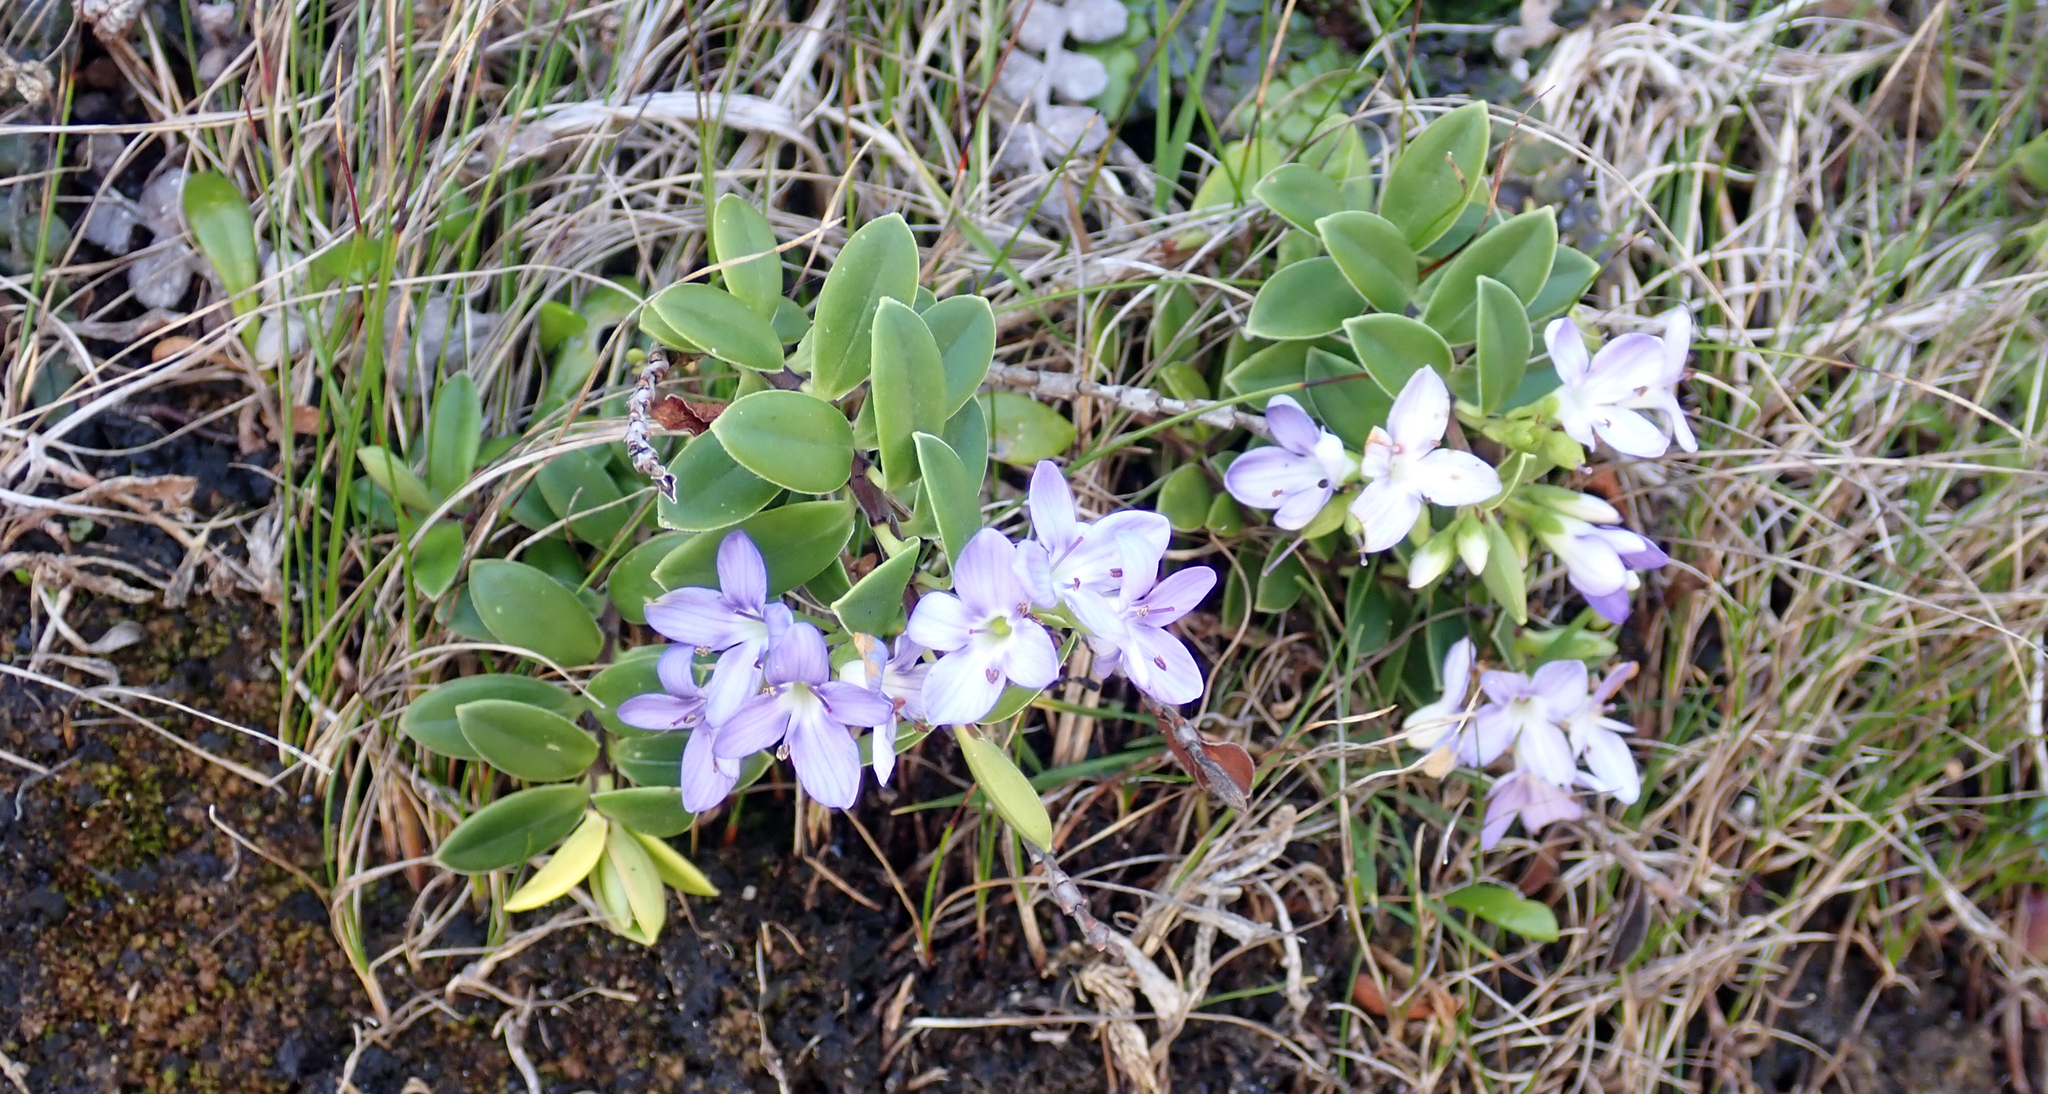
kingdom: Plantae
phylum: Tracheophyta
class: Magnoliopsida
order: Lamiales
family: Plantaginaceae
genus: Veronica
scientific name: Veronica elliptica
